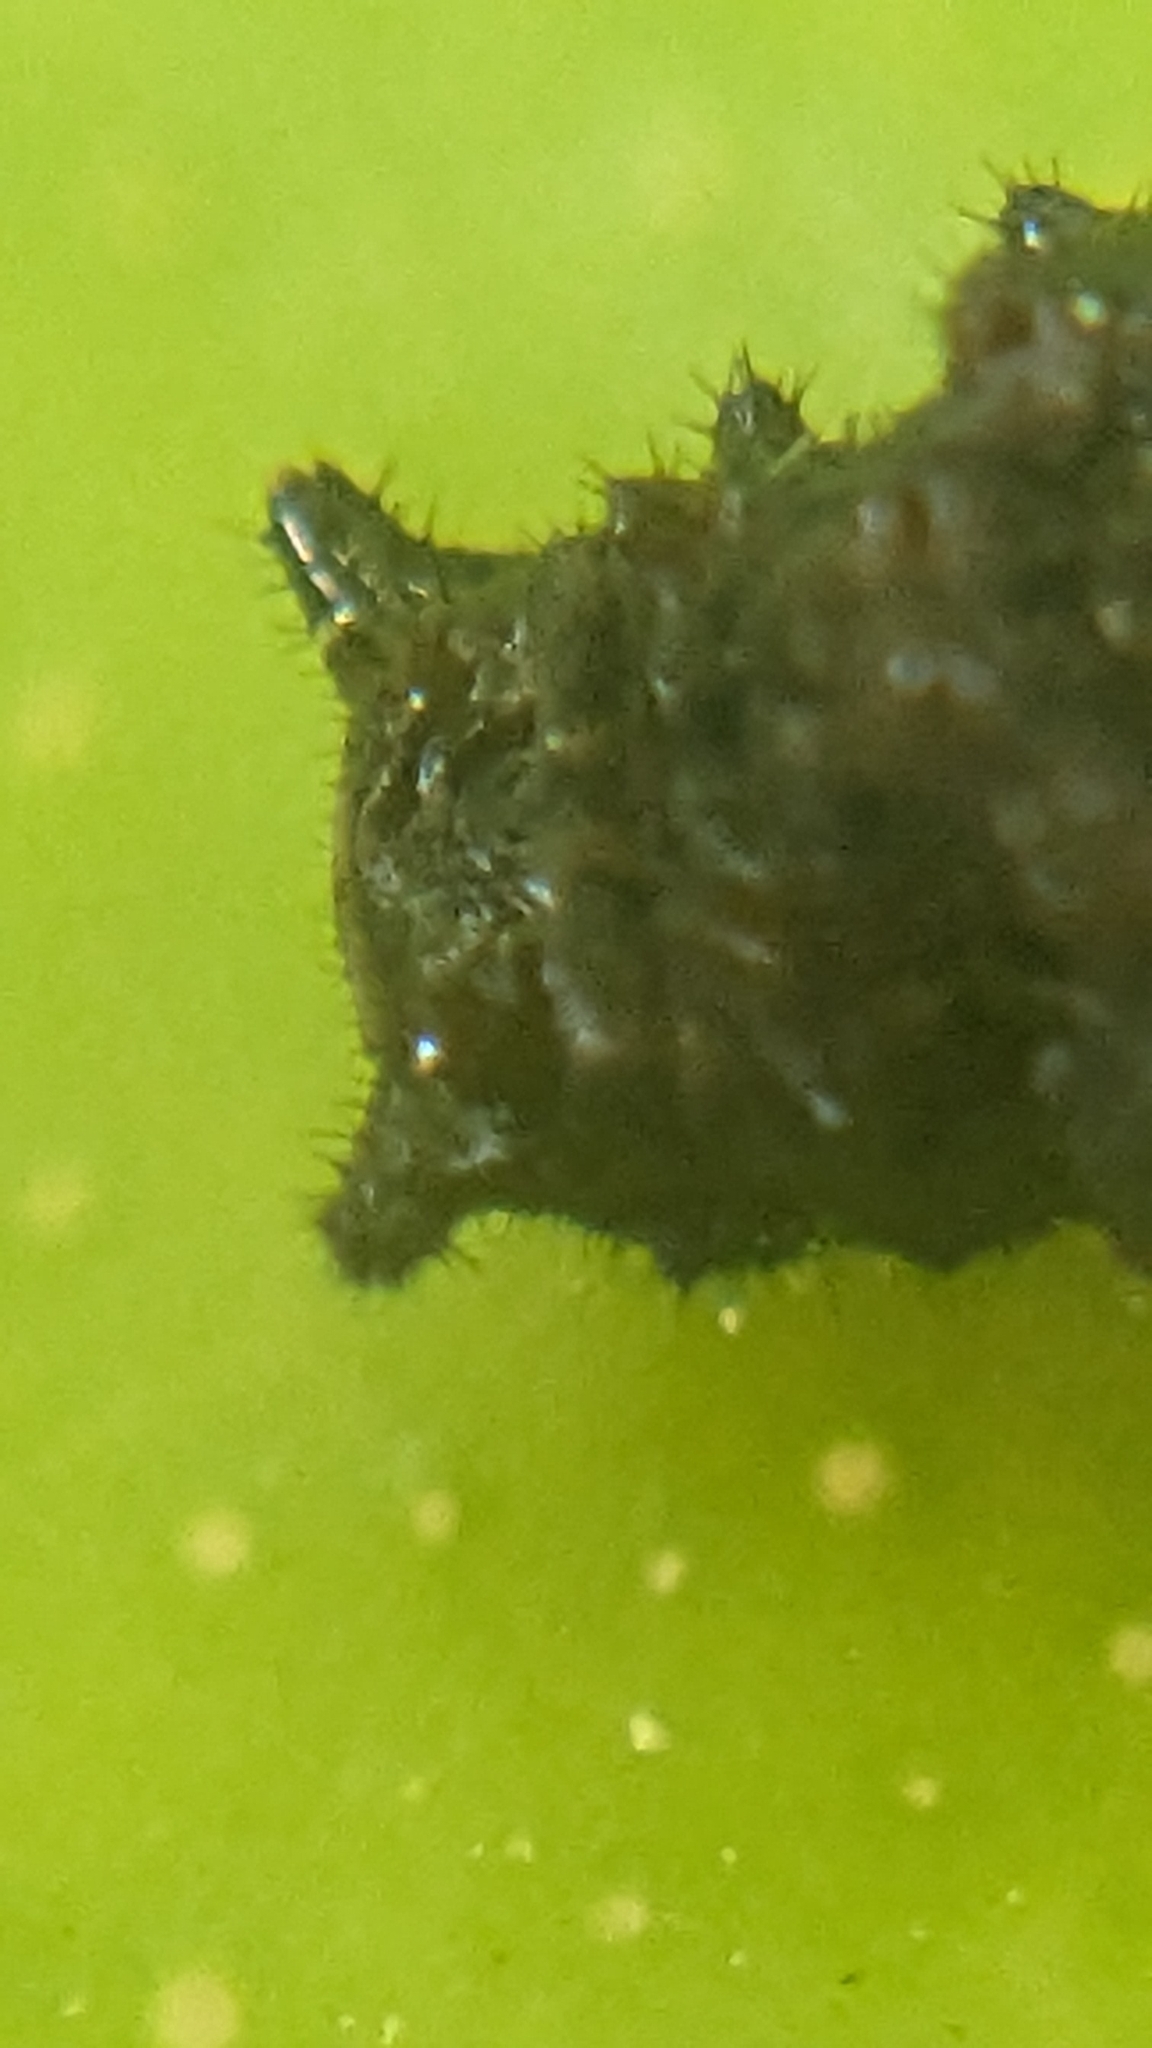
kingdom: Animalia
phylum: Arthropoda
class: Insecta
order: Lepidoptera
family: Papilionidae
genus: Papilio
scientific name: Papilio cresphontes
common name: Giant swallowtail
